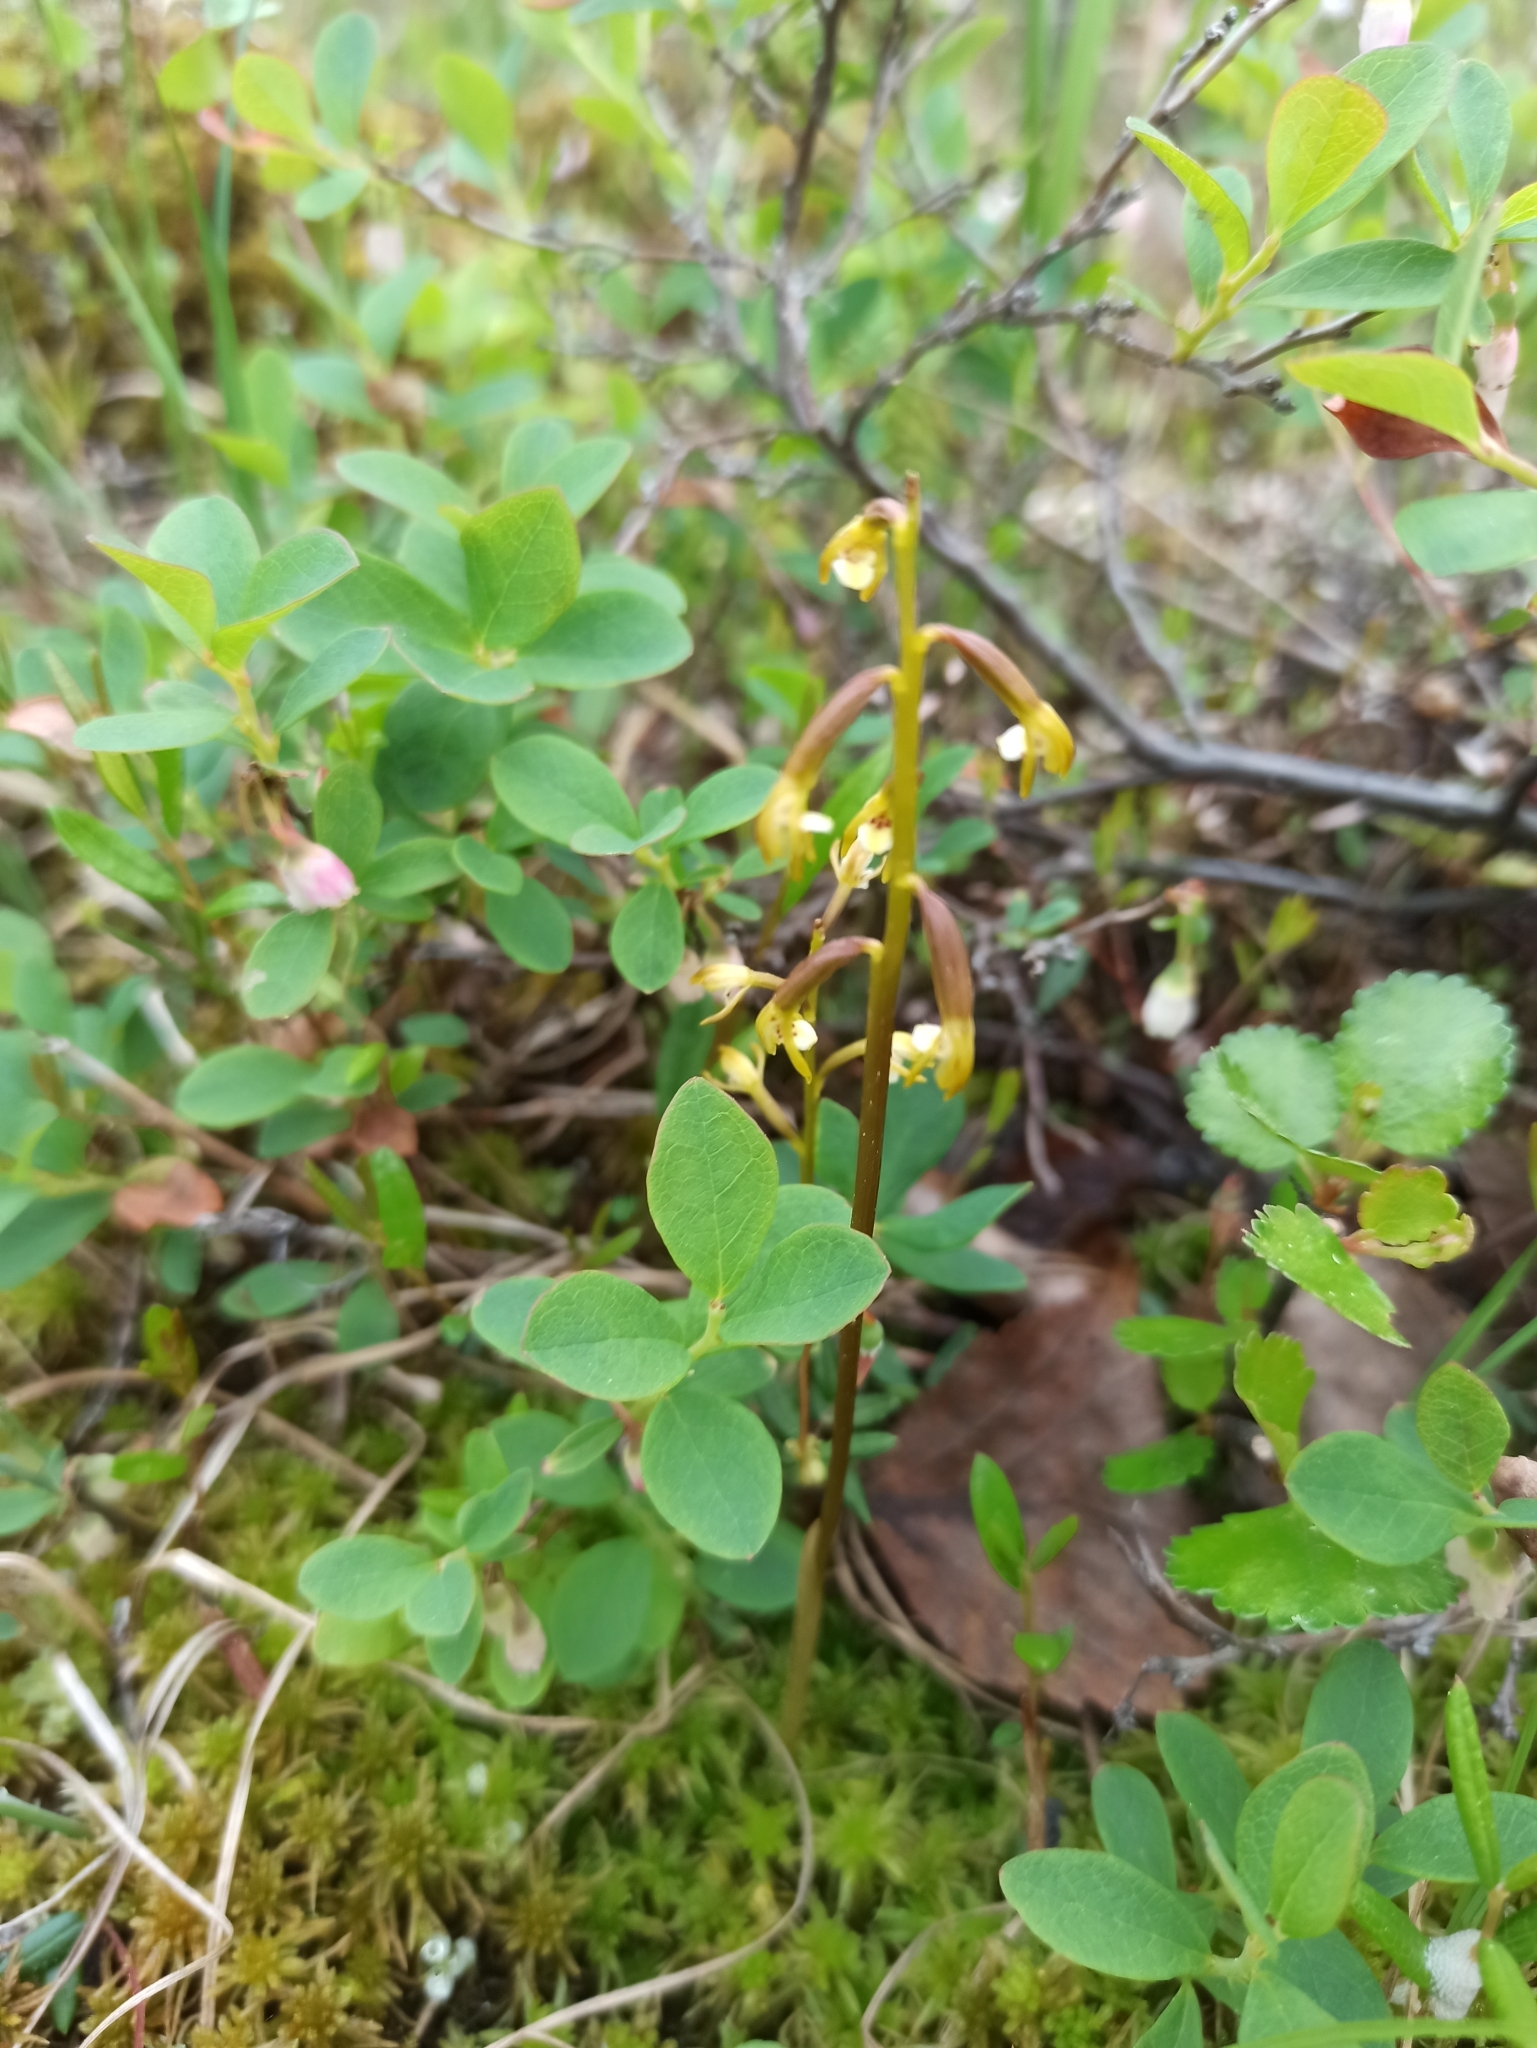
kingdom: Plantae
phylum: Tracheophyta
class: Liliopsida
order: Asparagales
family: Orchidaceae
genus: Corallorhiza
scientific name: Corallorhiza trifida
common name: Yellow coralroot
